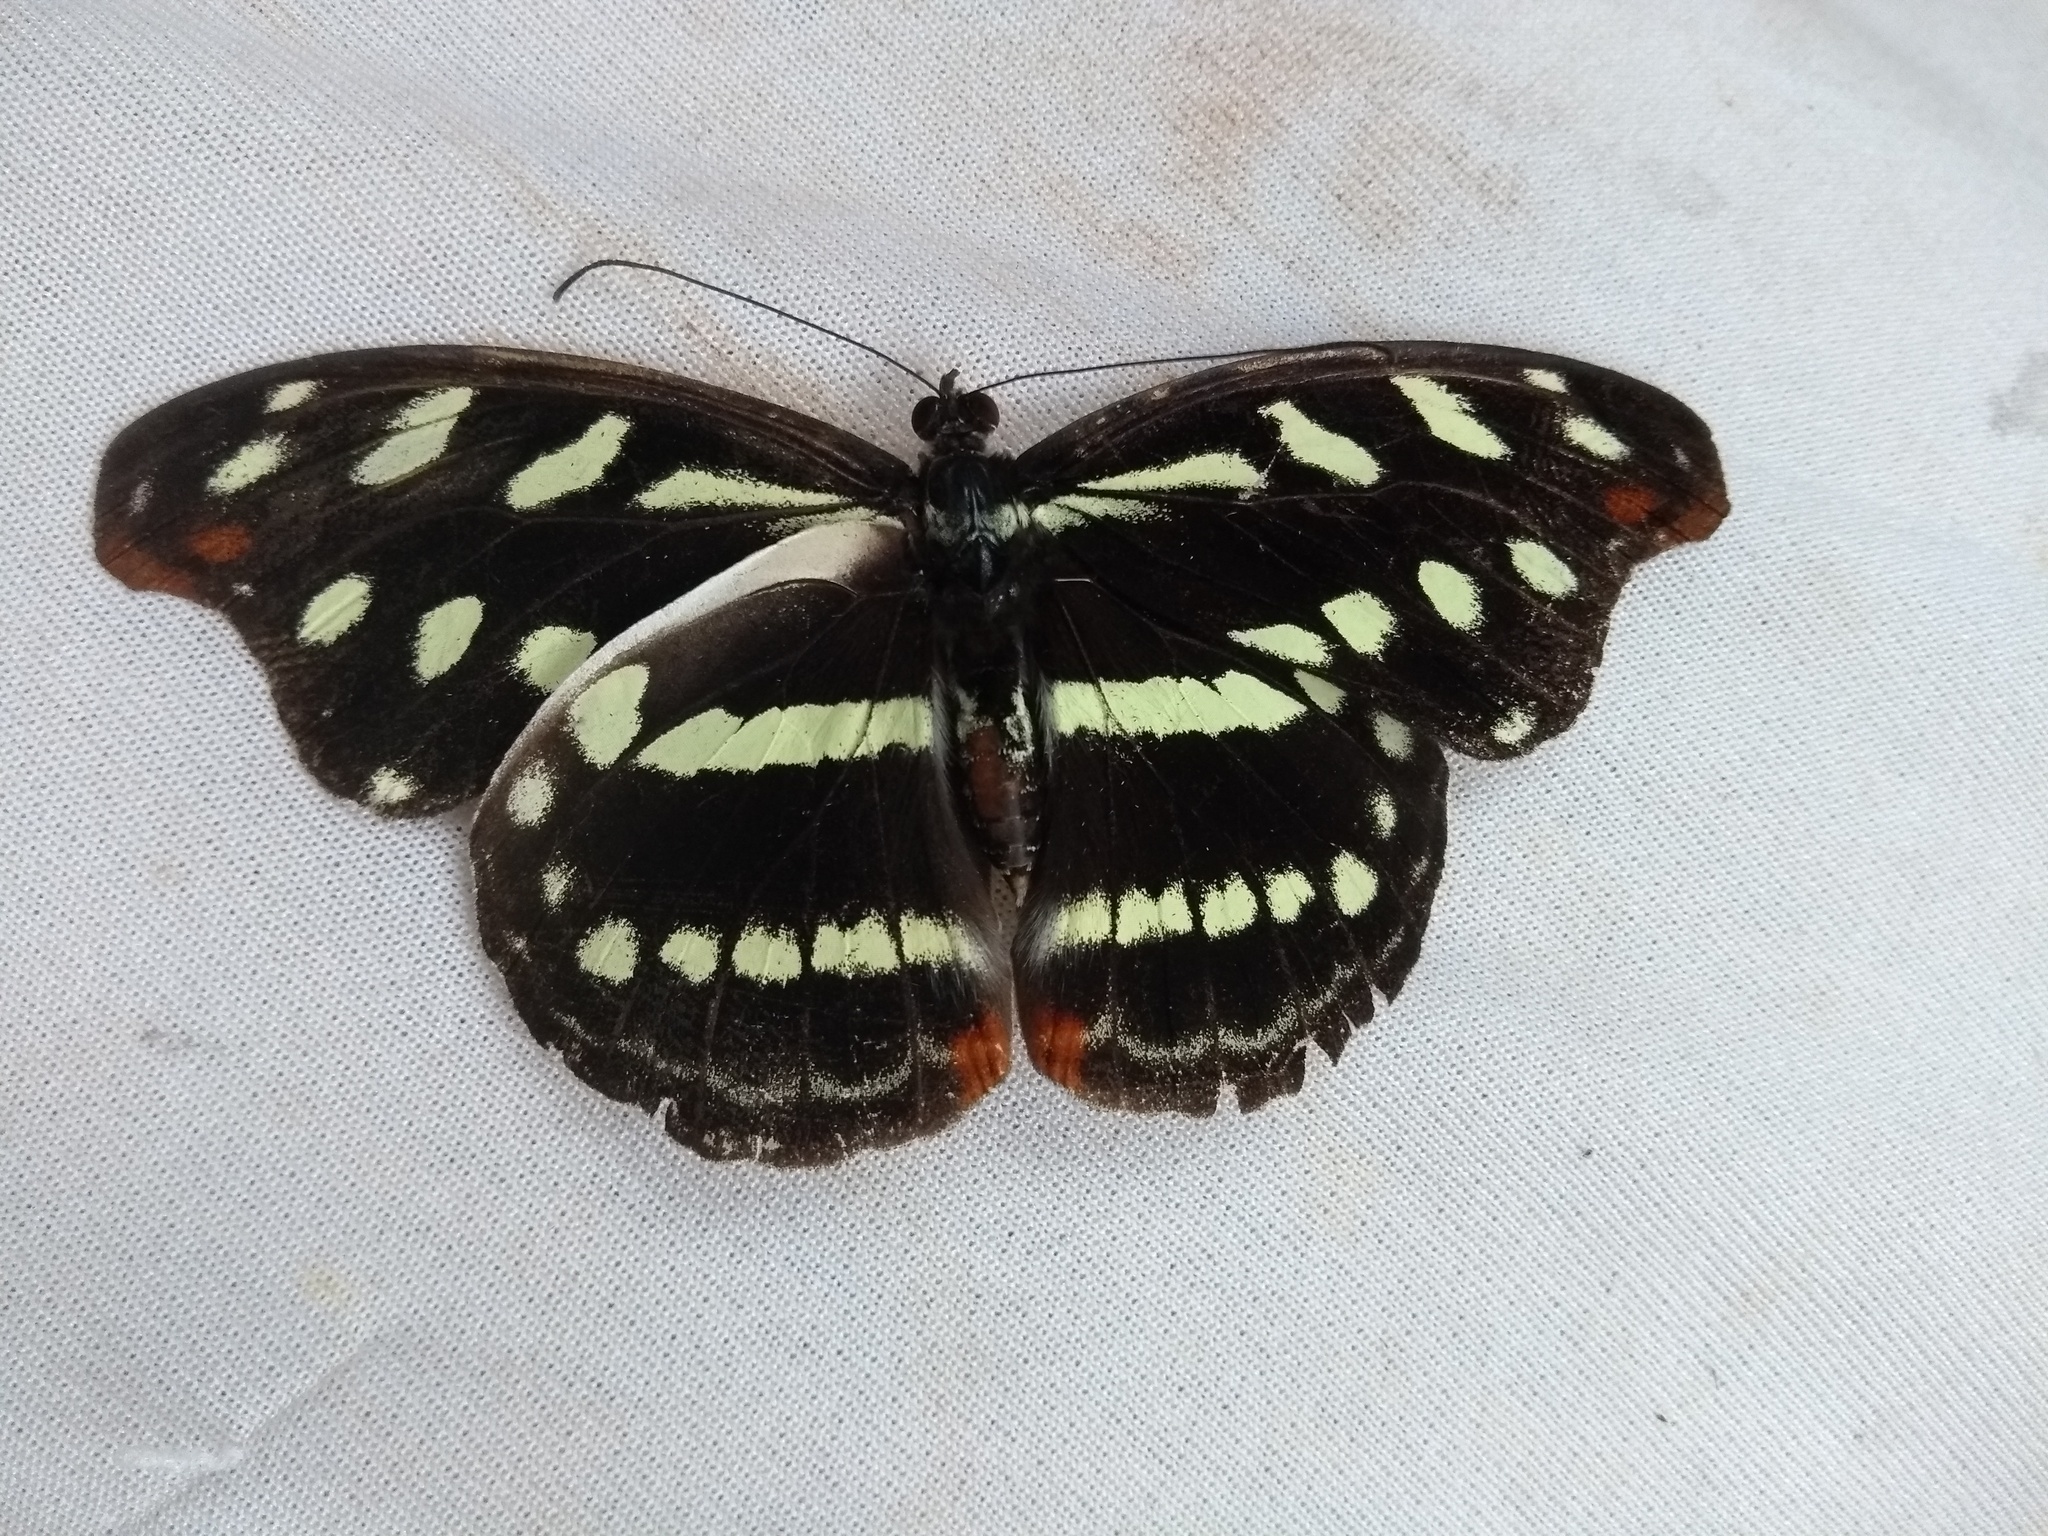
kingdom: Animalia
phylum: Arthropoda
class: Insecta
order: Lepidoptera
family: Nymphalidae
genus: Catonephele
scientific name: Catonephele acontius
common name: Unspotted firewing
